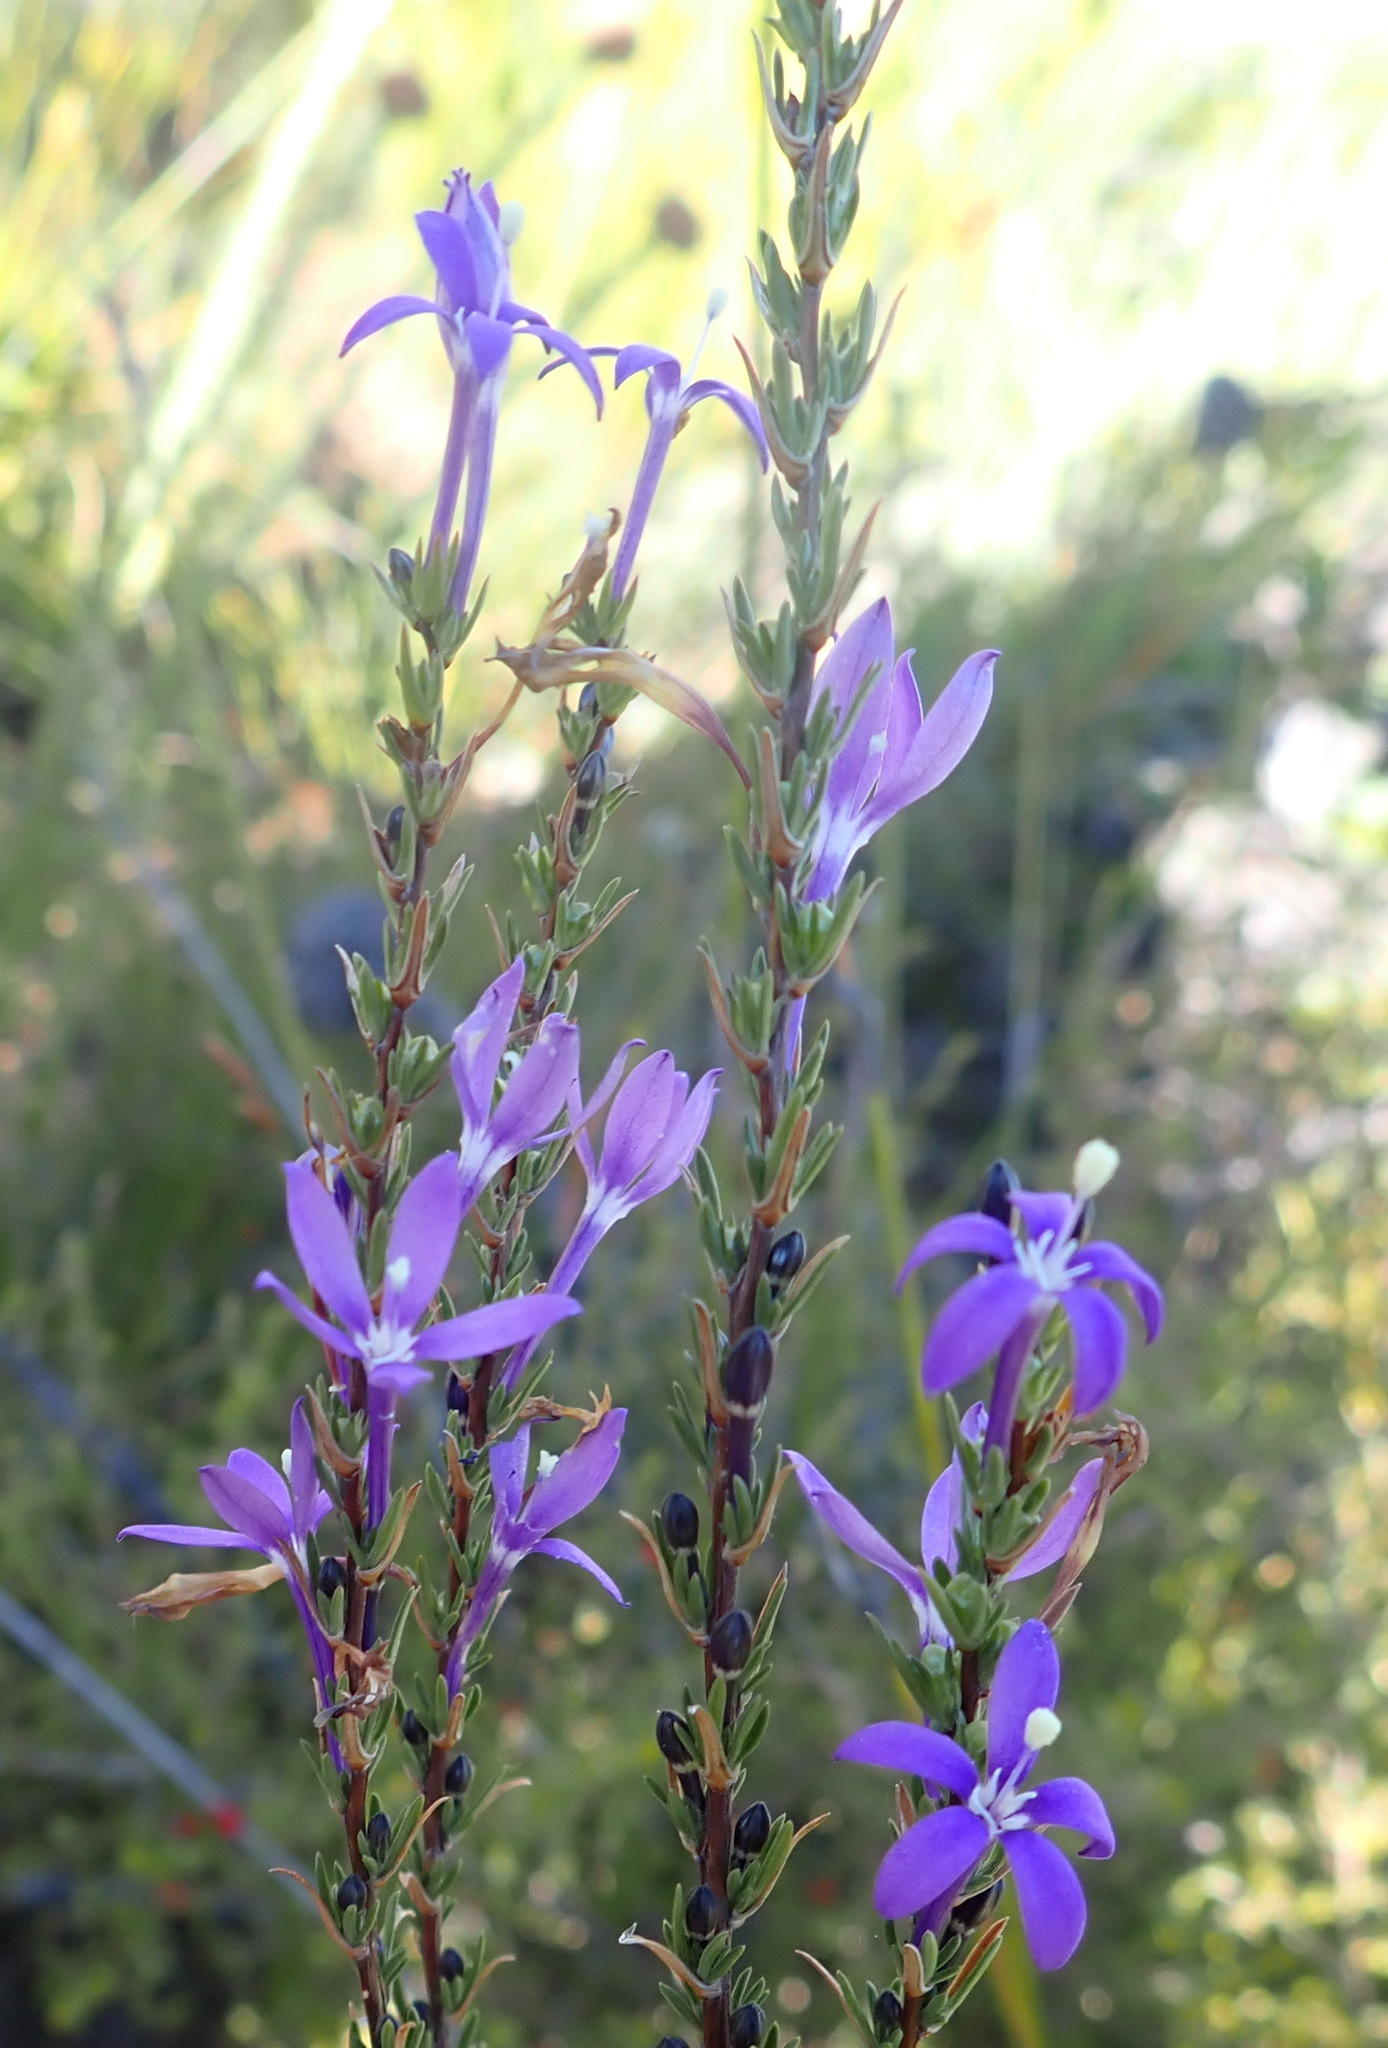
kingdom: Plantae
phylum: Tracheophyta
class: Magnoliopsida
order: Asterales
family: Campanulaceae
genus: Theilera
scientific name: Theilera guthriei
